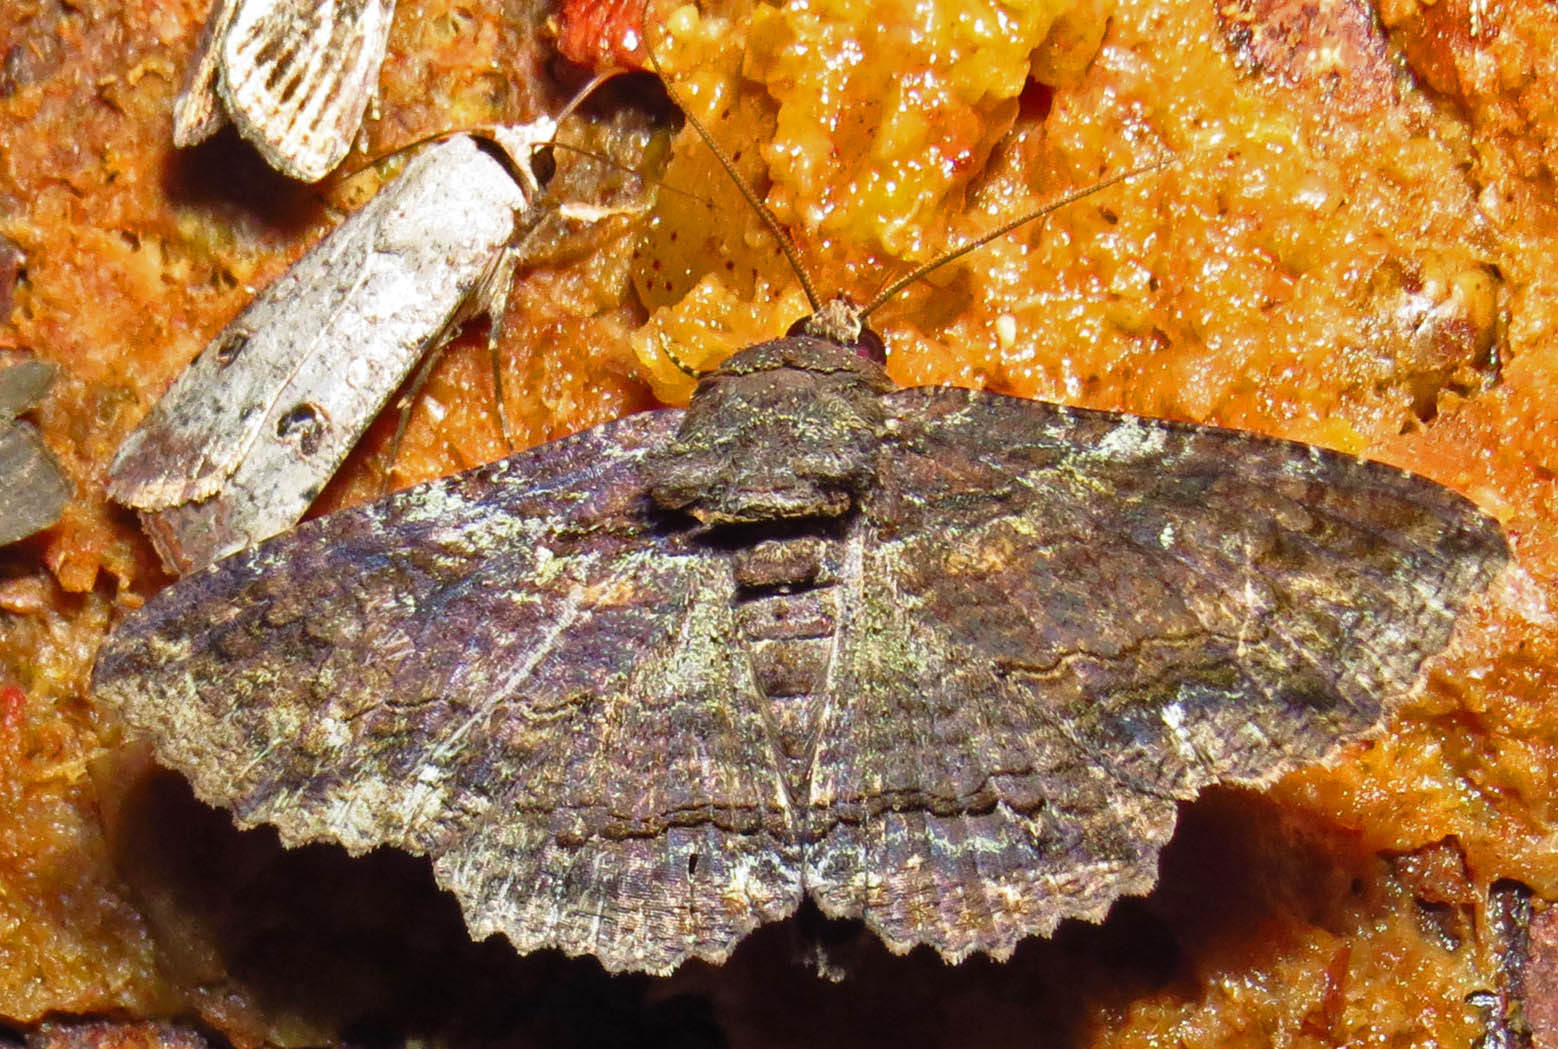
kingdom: Animalia
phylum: Arthropoda
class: Insecta
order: Lepidoptera
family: Erebidae
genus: Zale
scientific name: Zale lunata
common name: Lunate zale moth
